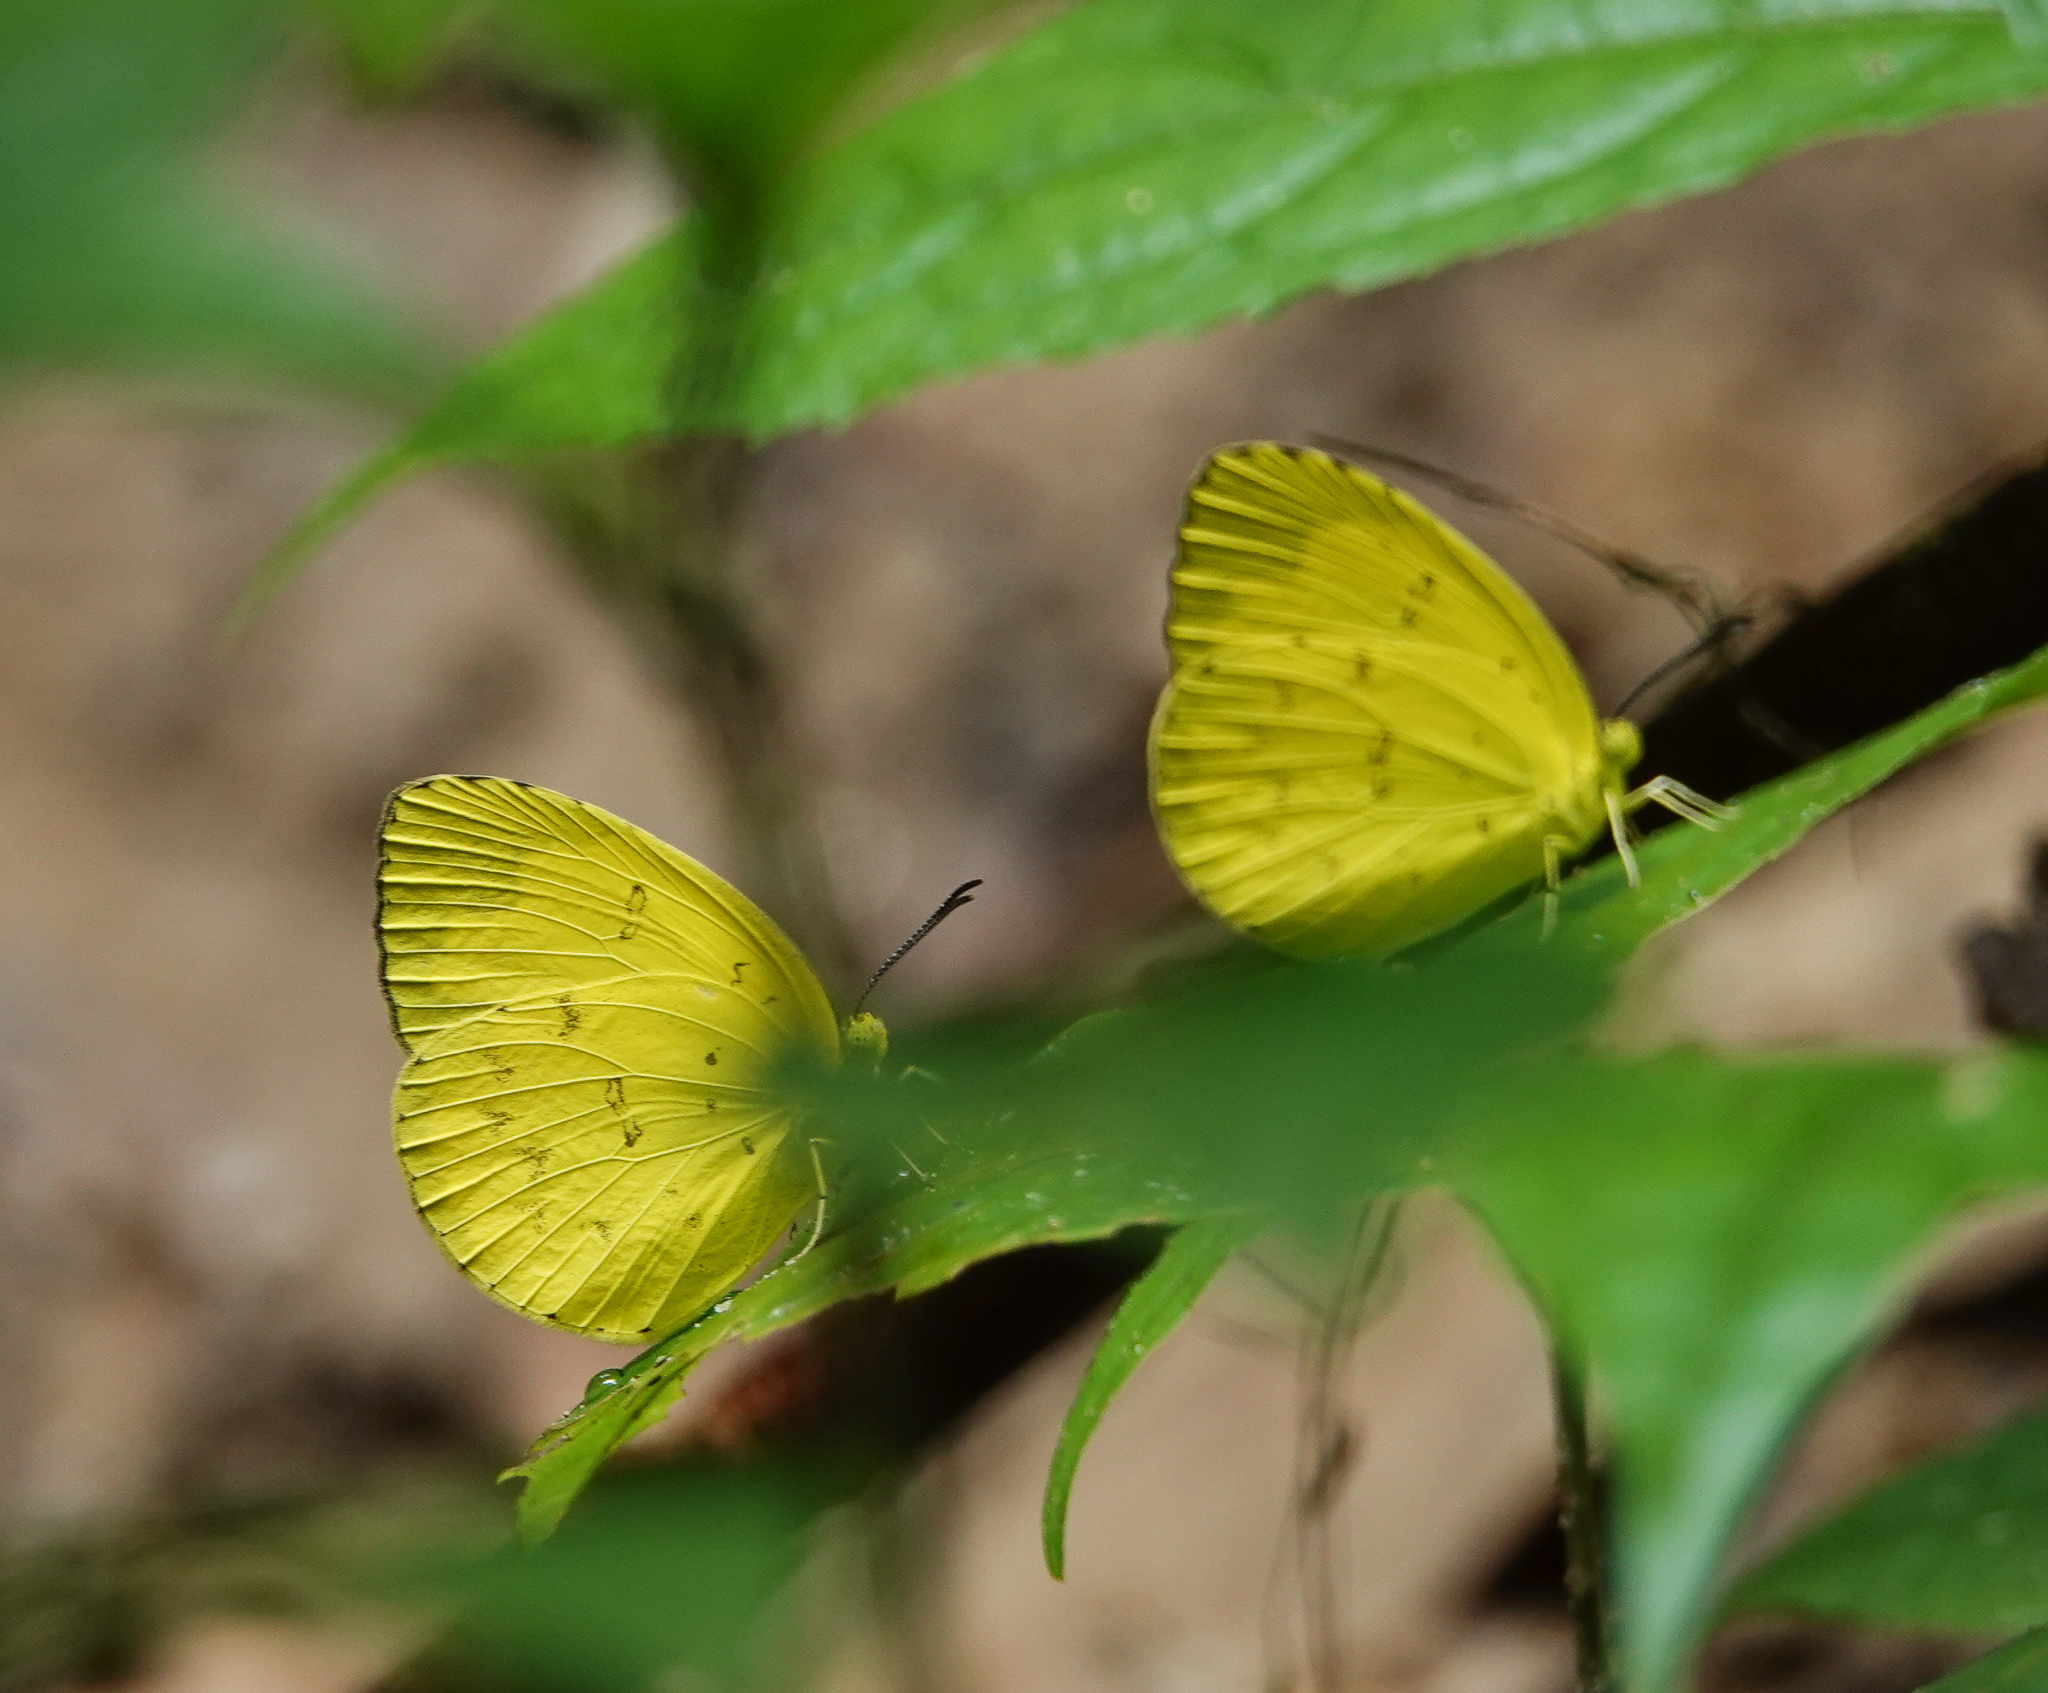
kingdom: Animalia
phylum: Arthropoda
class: Insecta
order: Lepidoptera
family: Pieridae
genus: Eurema
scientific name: Eurema blanda
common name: Three-spot grass yellow
